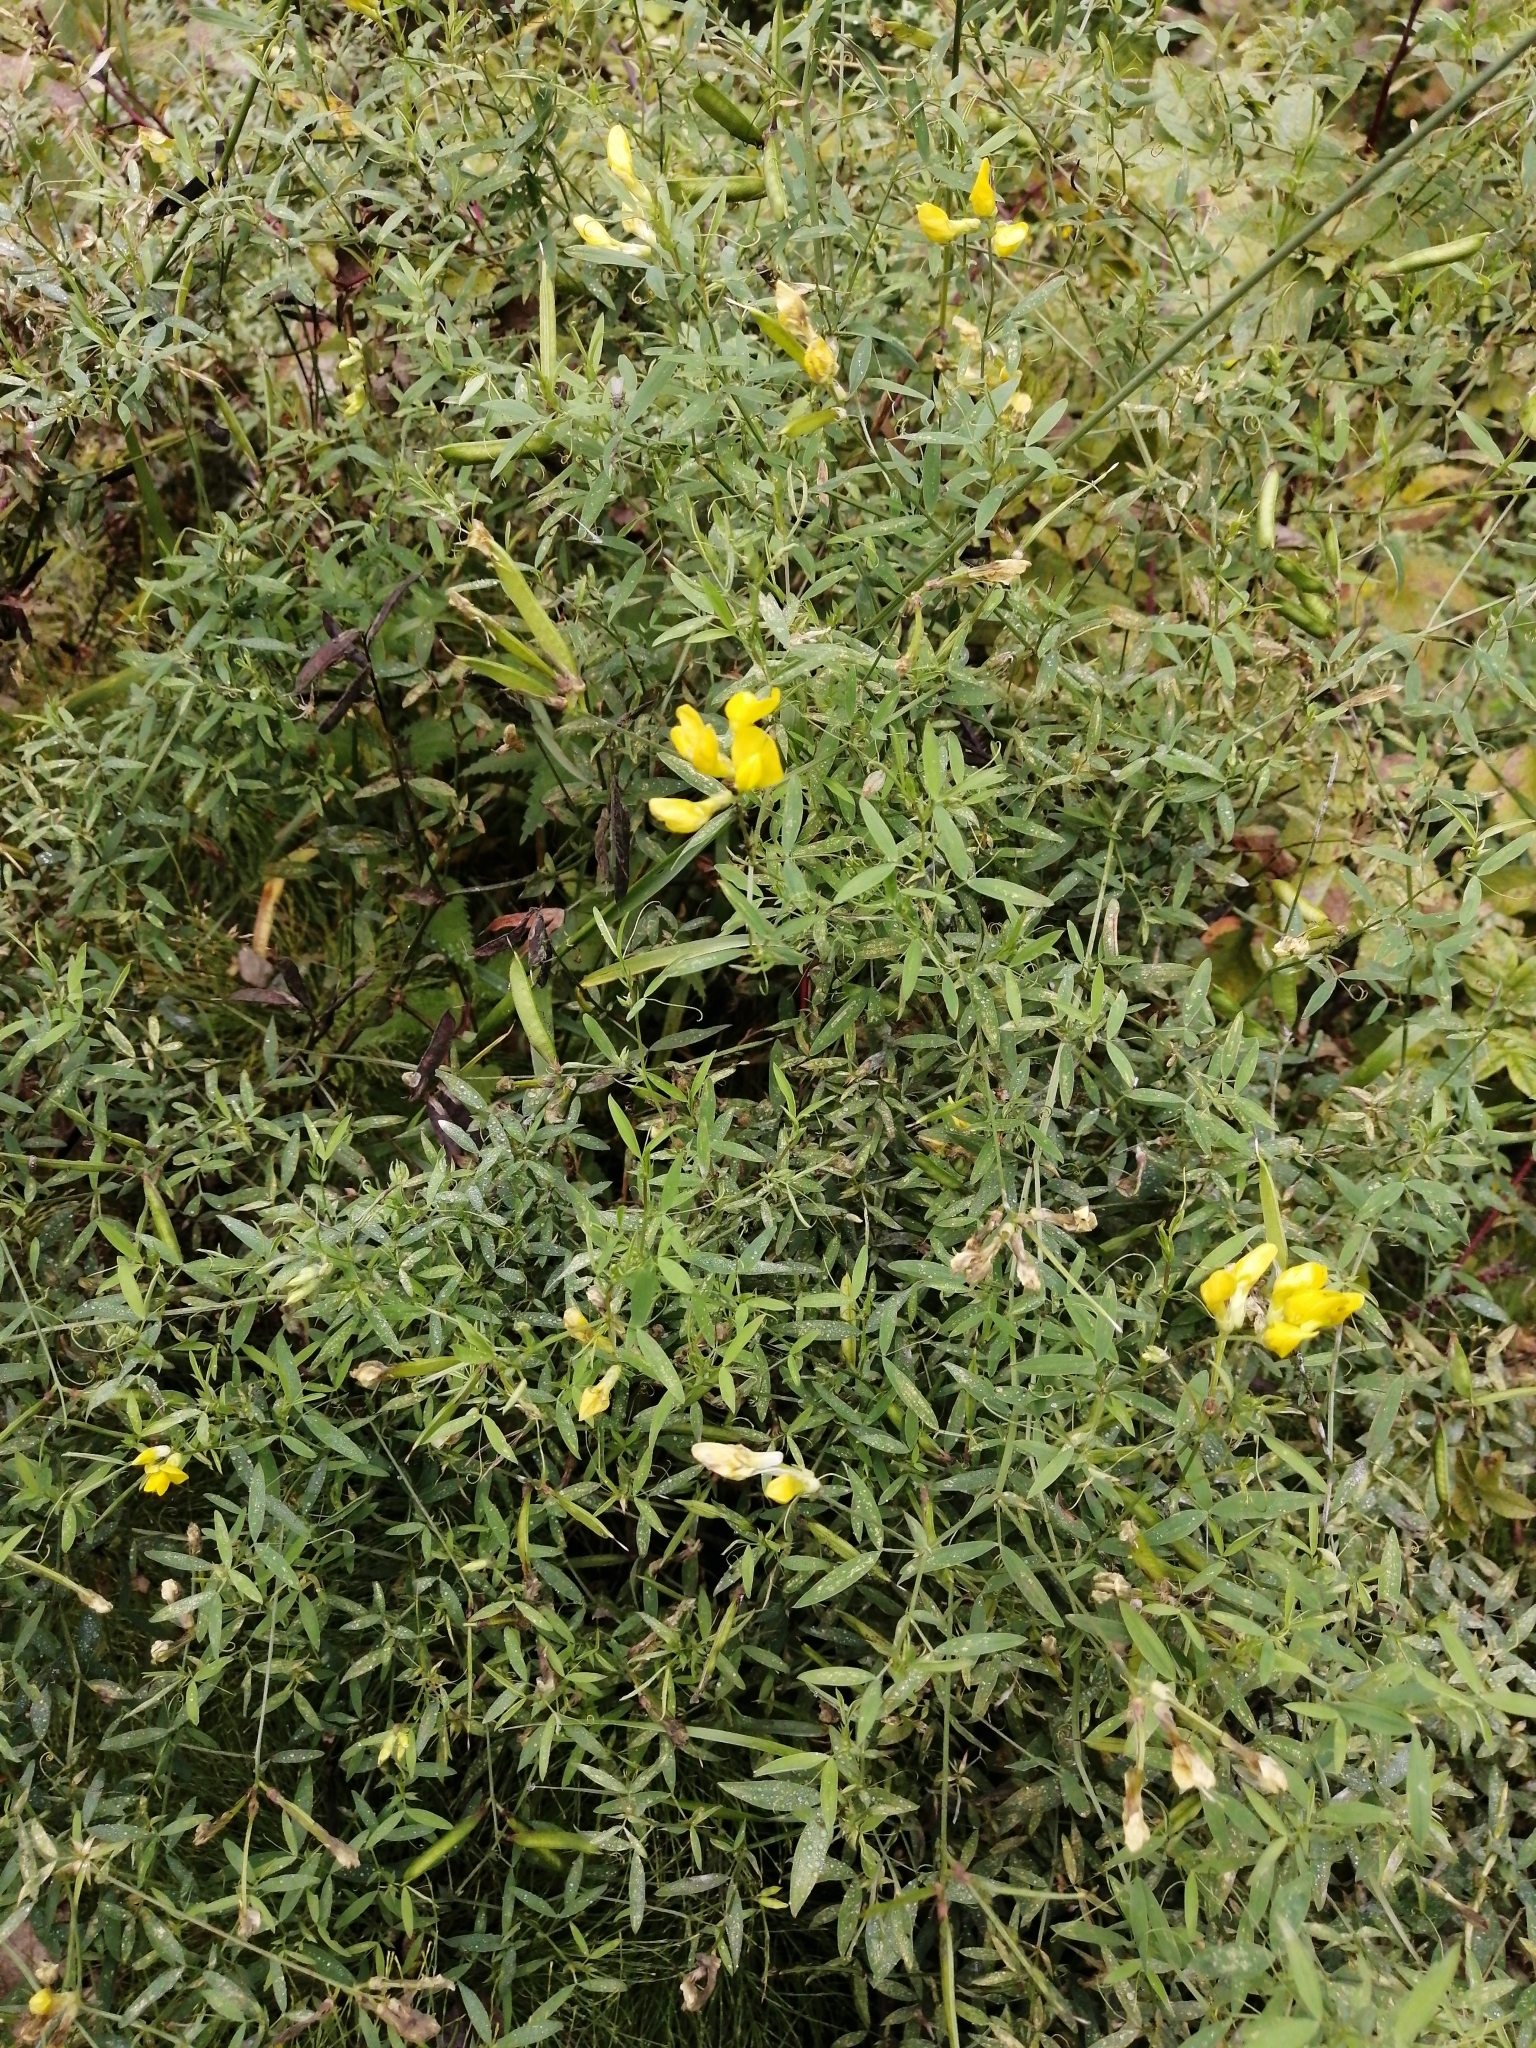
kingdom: Plantae
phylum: Tracheophyta
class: Magnoliopsida
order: Fabales
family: Fabaceae
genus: Lathyrus
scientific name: Lathyrus pratensis
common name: Meadow vetchling
